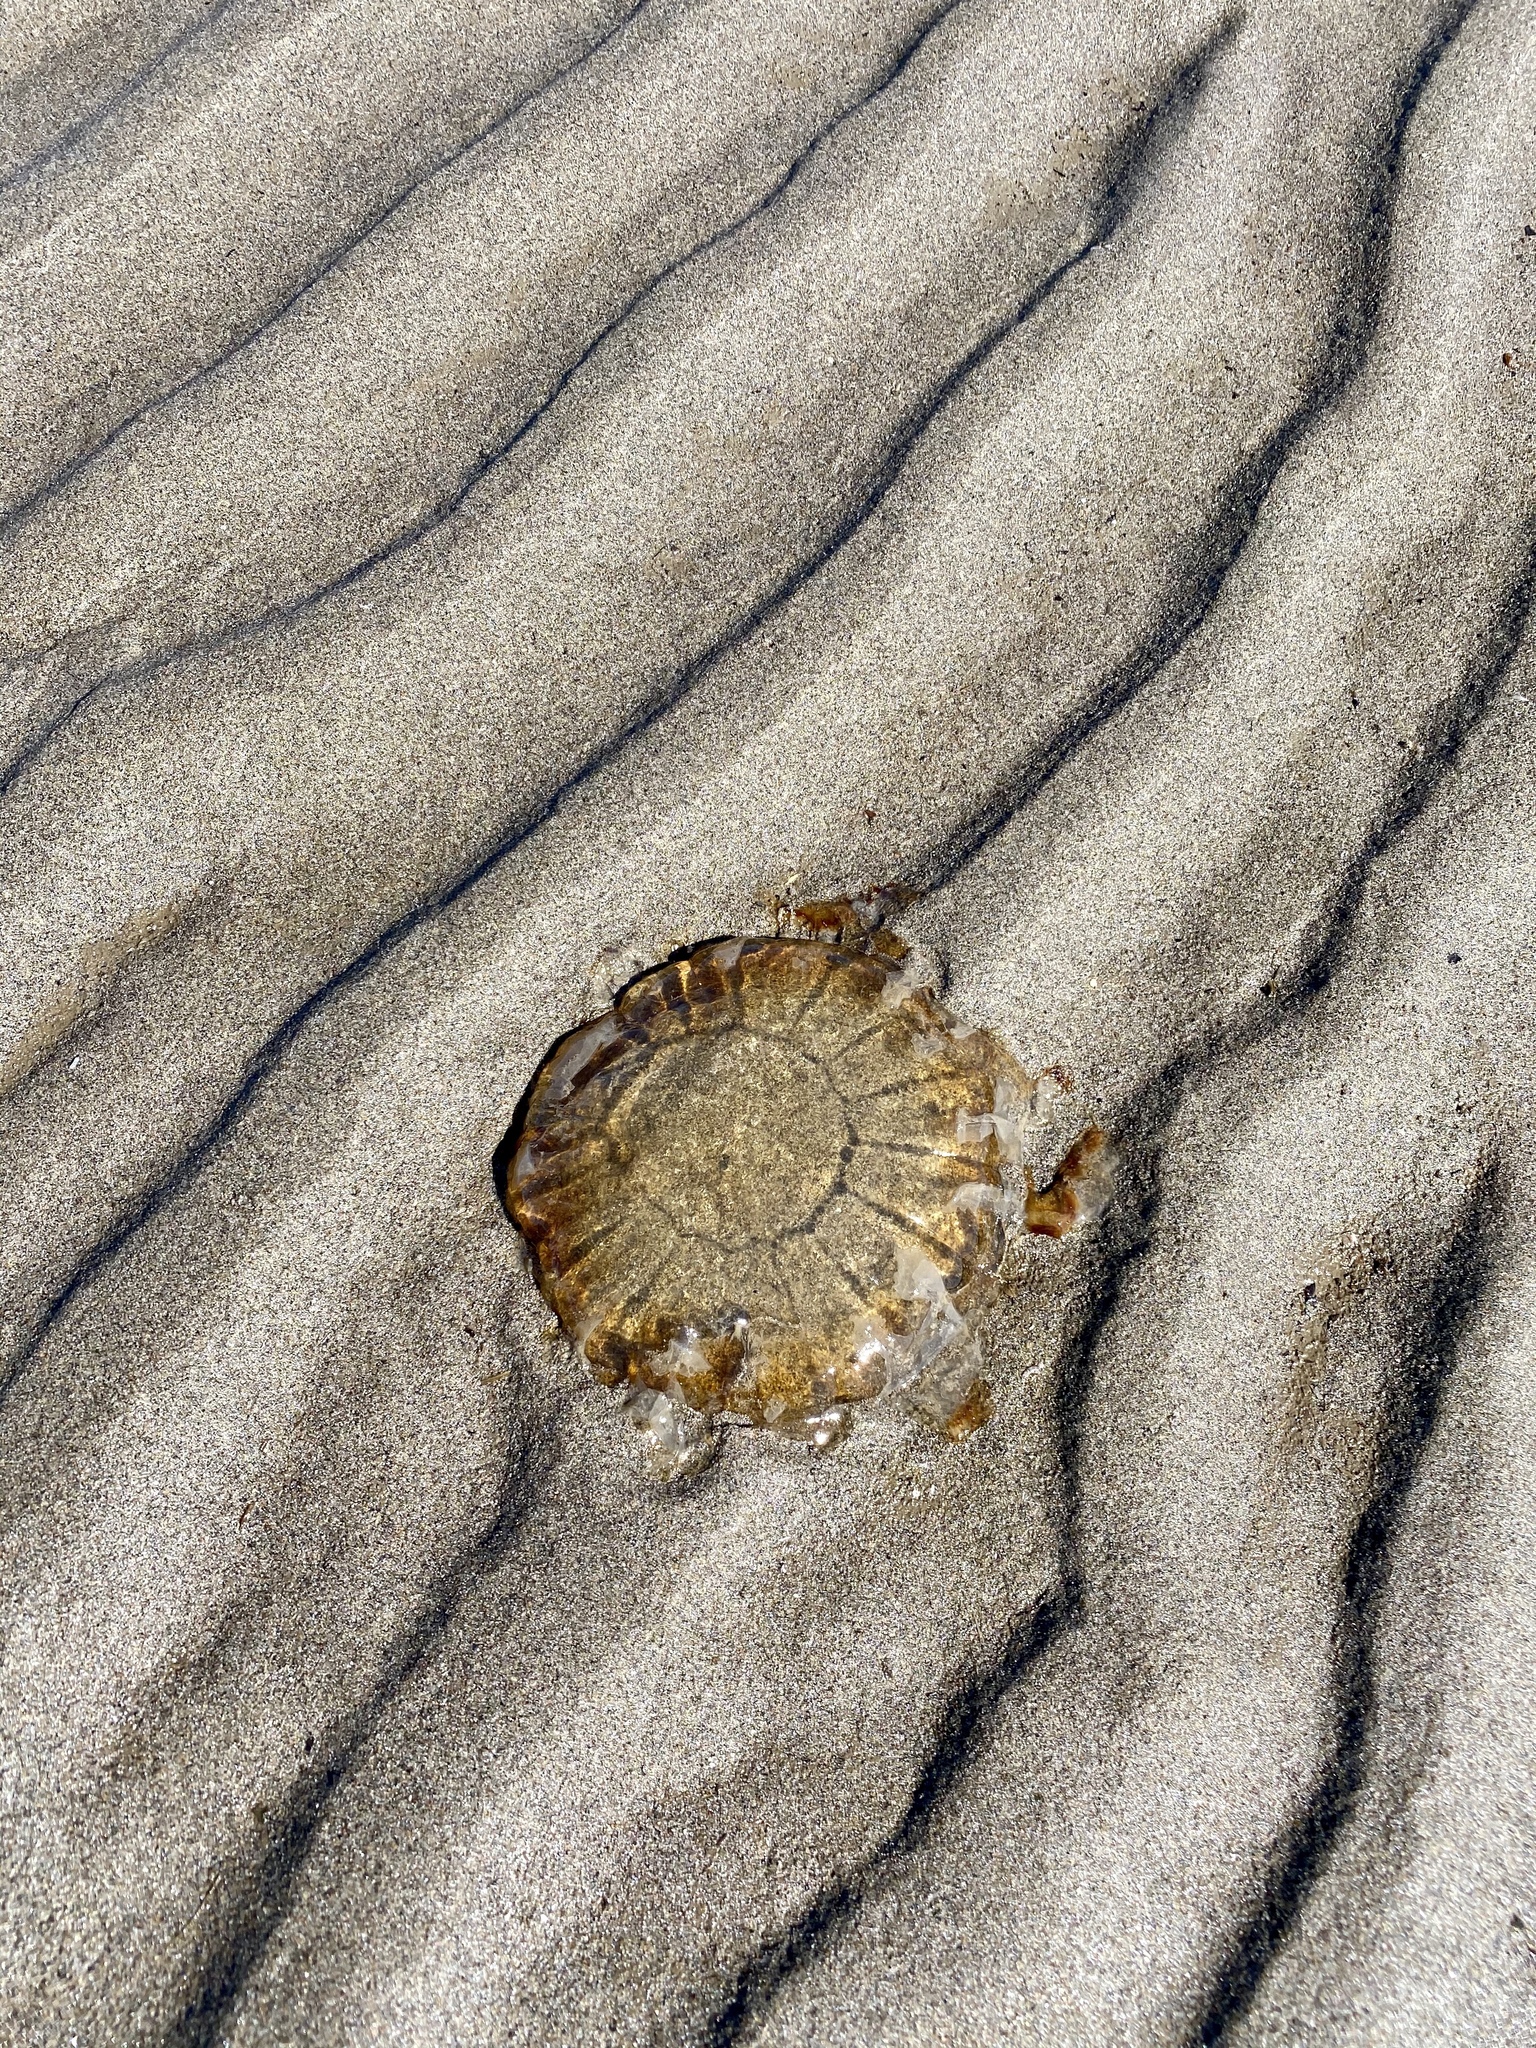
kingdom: Animalia
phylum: Cnidaria
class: Scyphozoa
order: Semaeostomeae
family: Pelagiidae
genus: Chrysaora
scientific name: Chrysaora fuscescens
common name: Sea nettle
